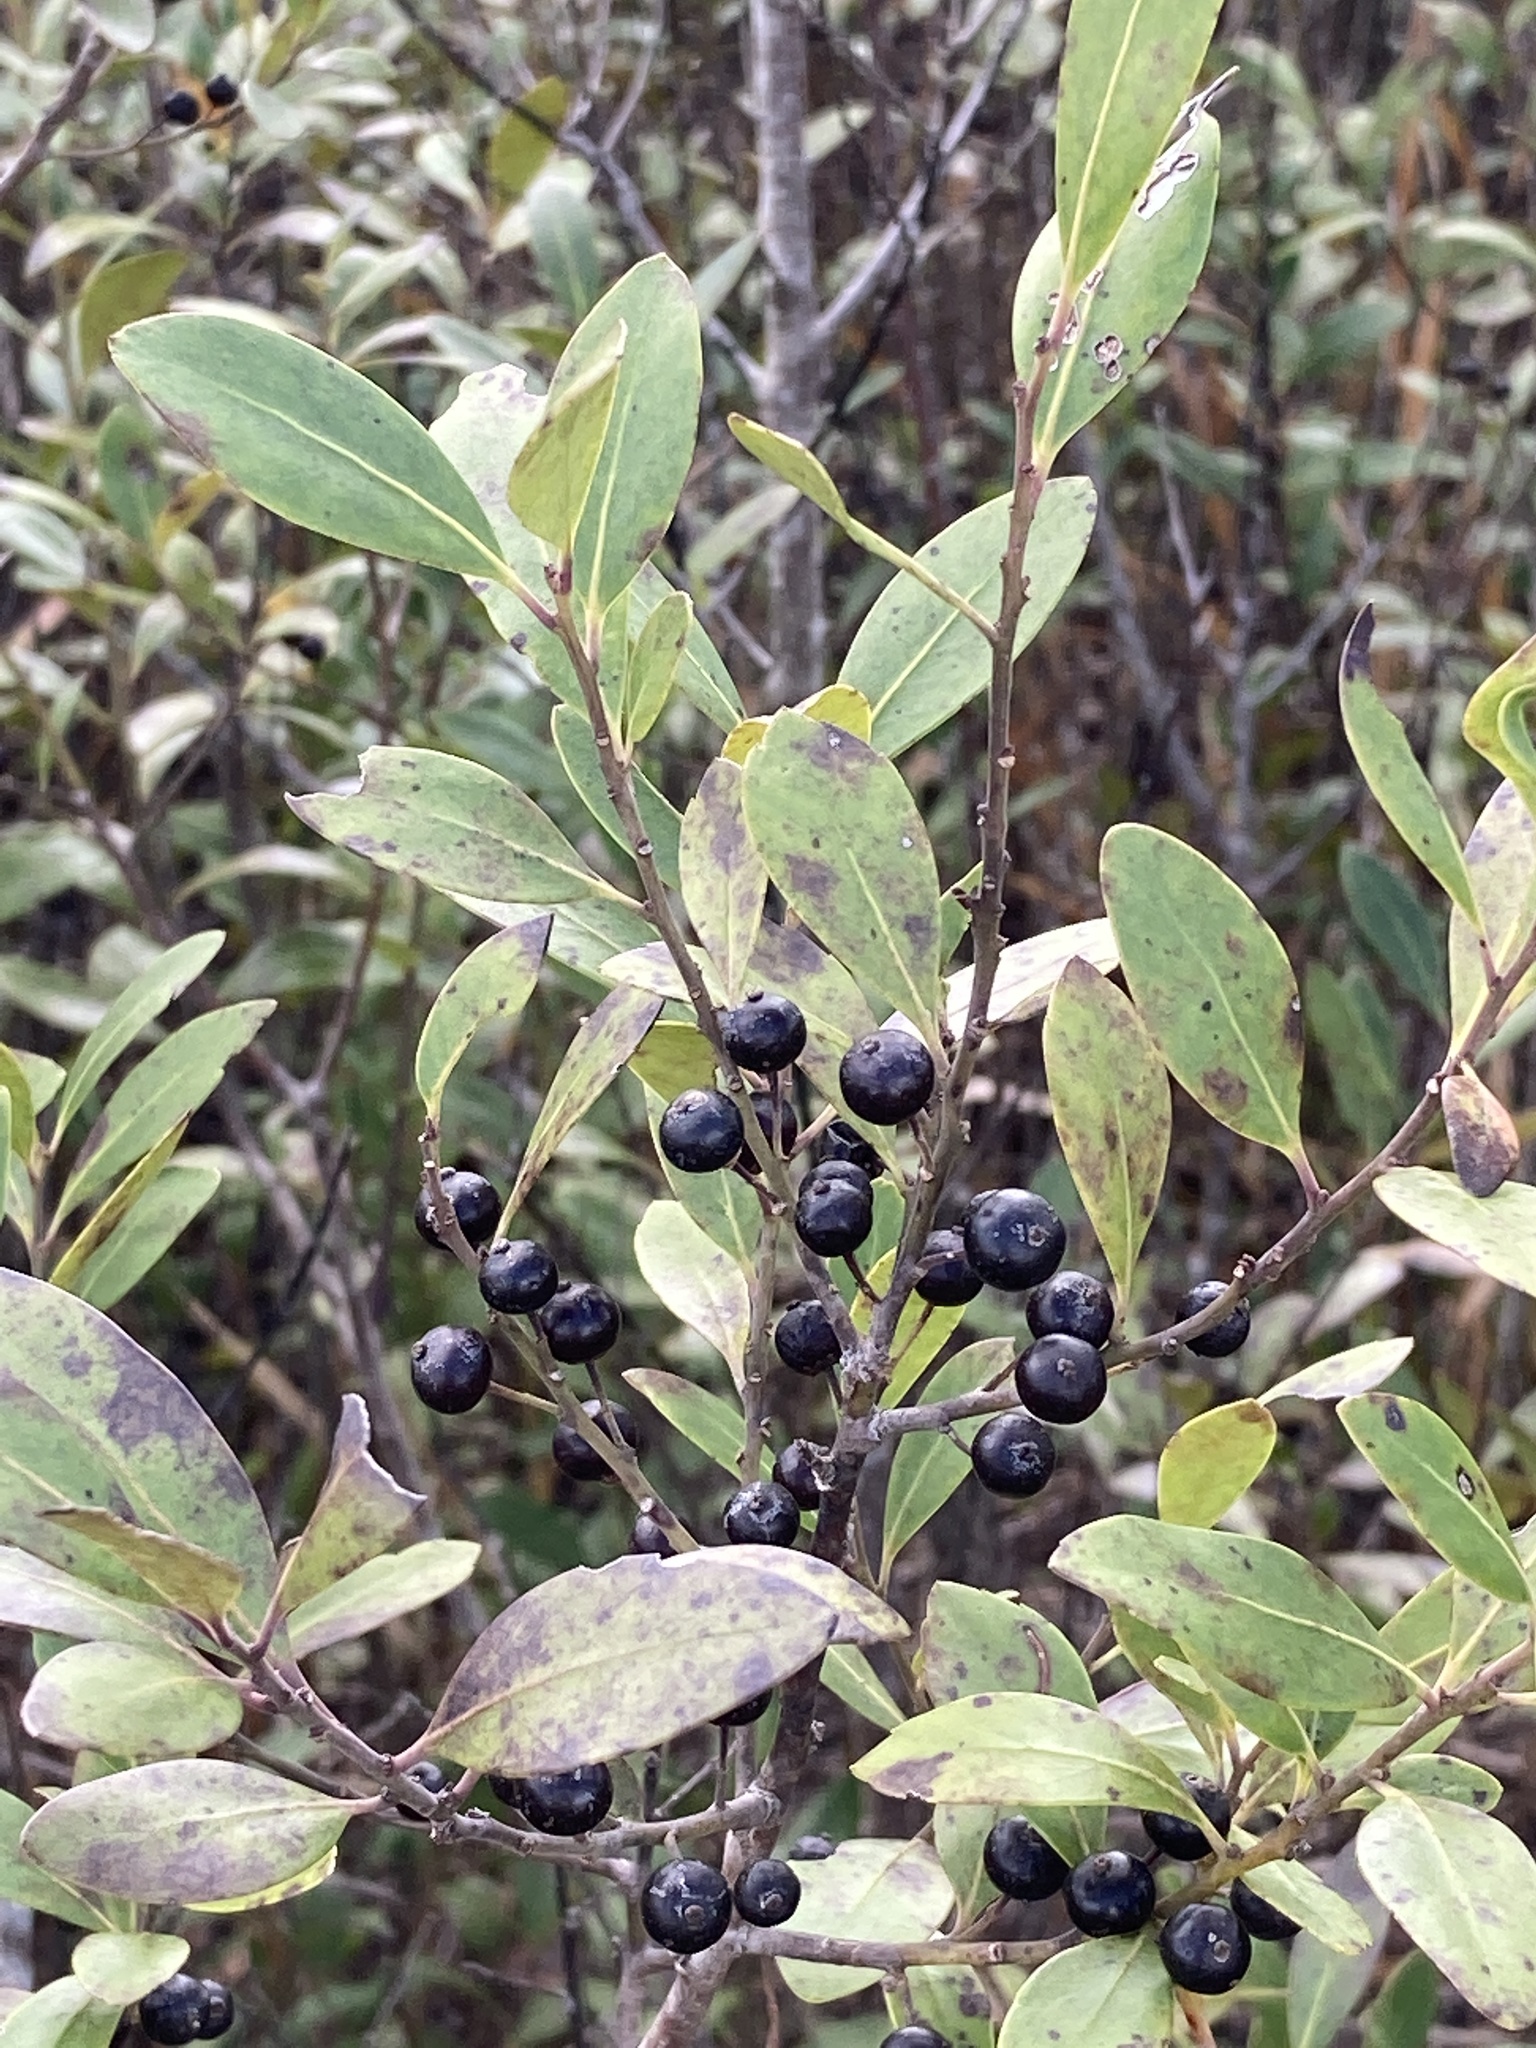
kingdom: Plantae
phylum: Tracheophyta
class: Magnoliopsida
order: Aquifoliales
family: Aquifoliaceae
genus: Ilex
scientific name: Ilex glabra
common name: Bitter gallberry
